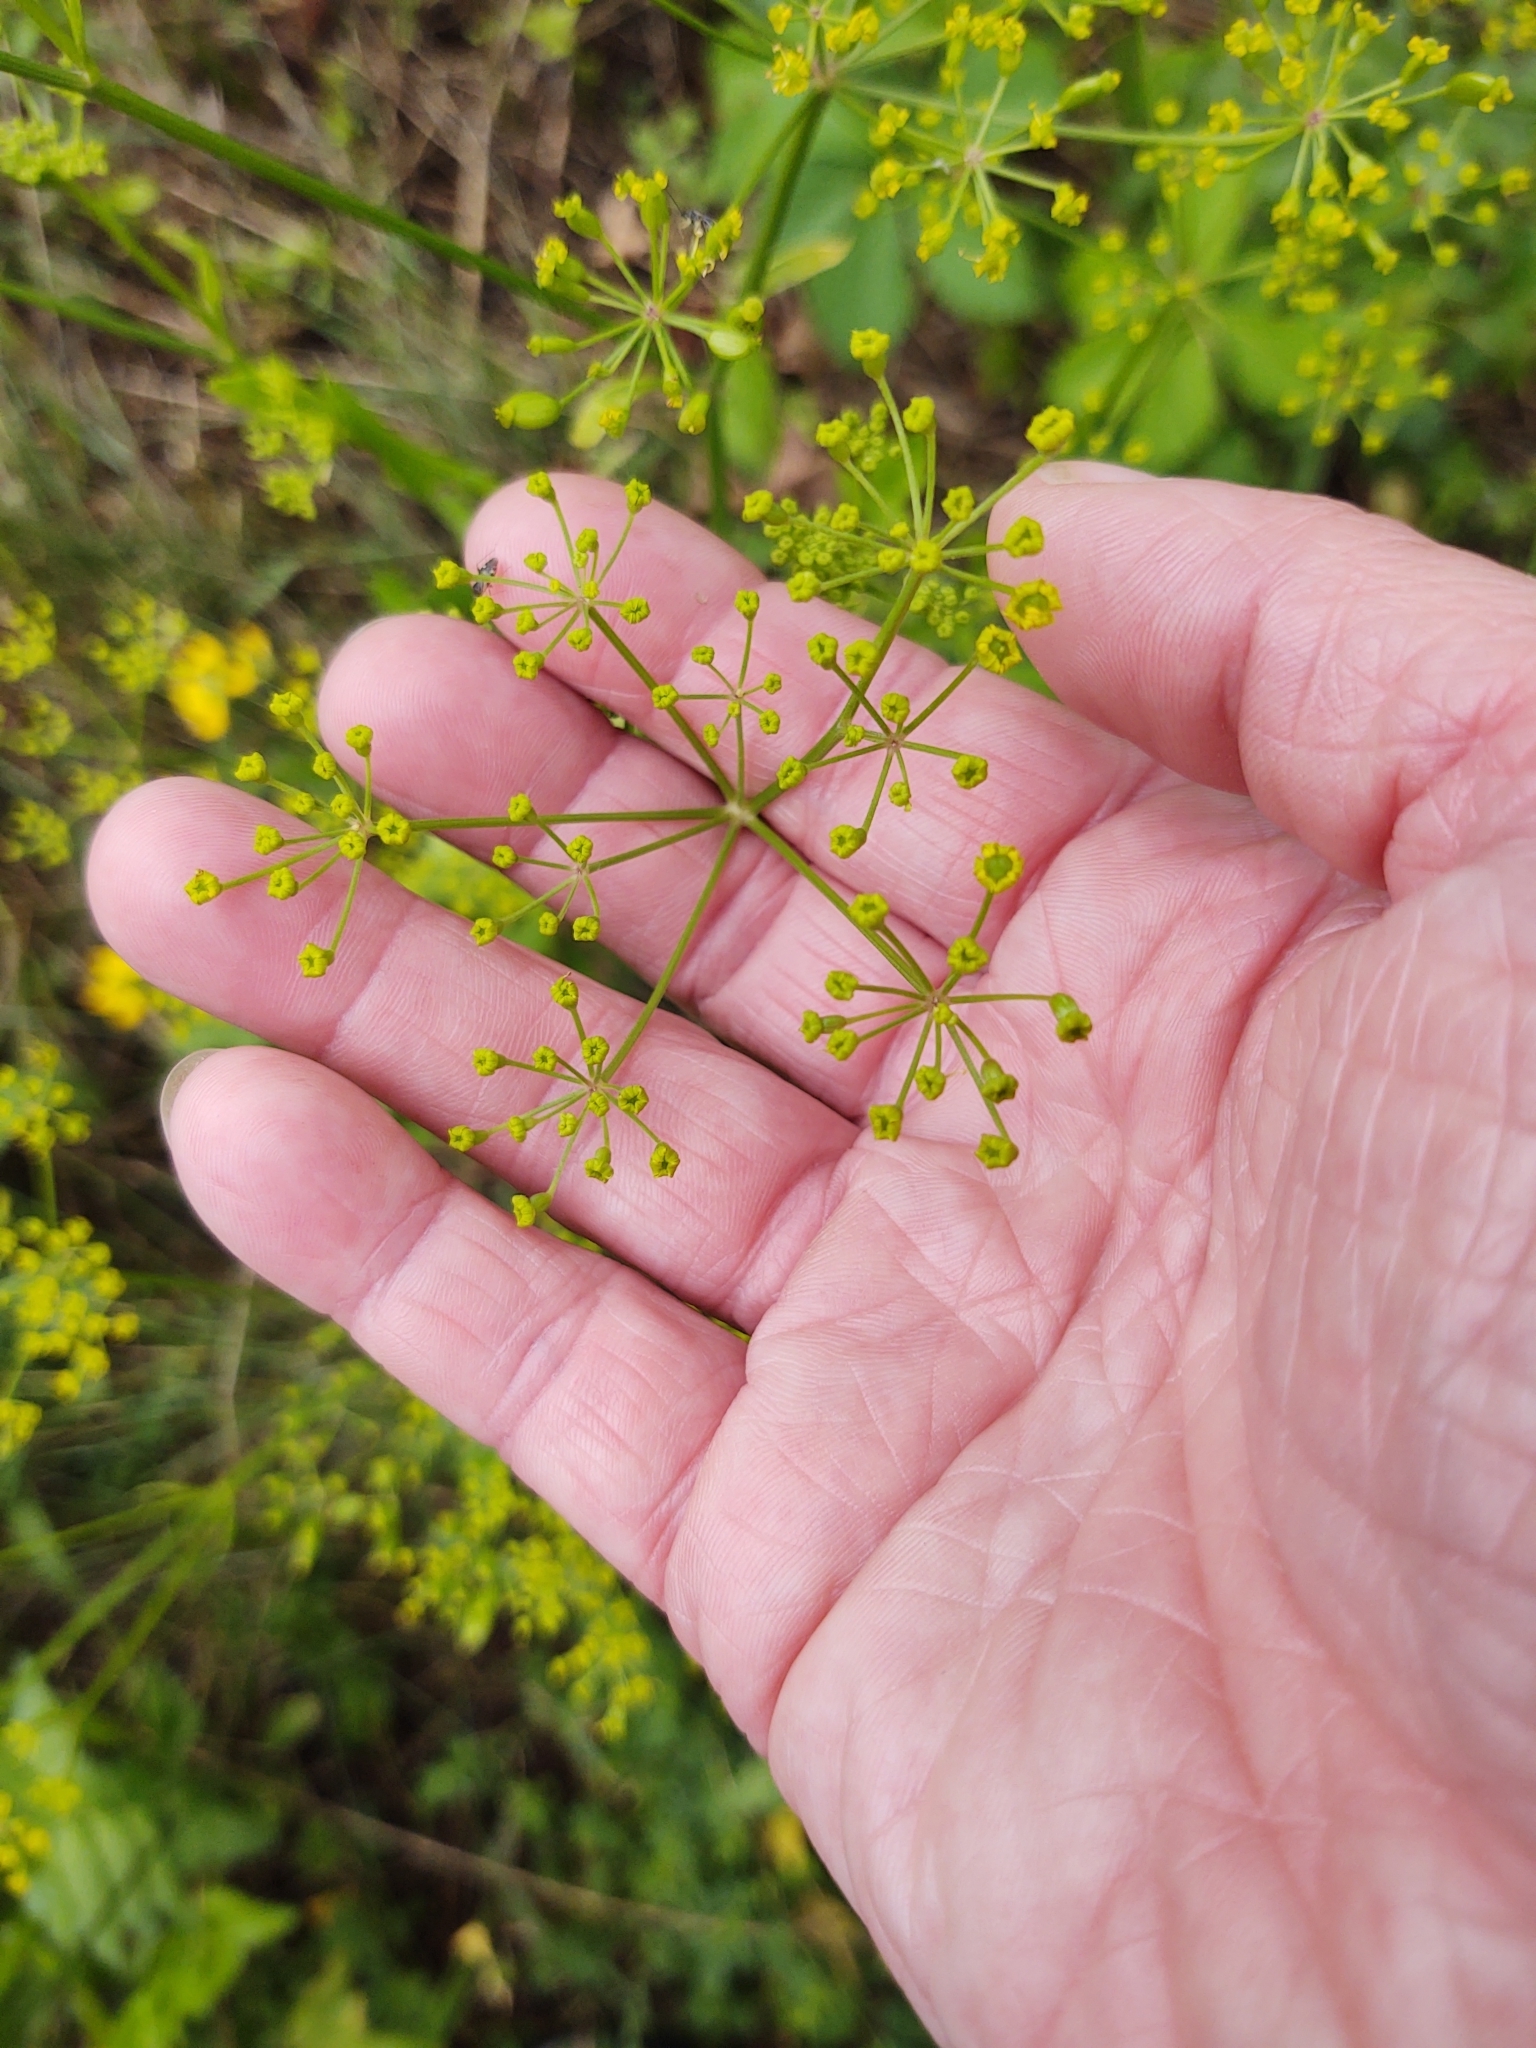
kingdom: Plantae
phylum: Tracheophyta
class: Magnoliopsida
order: Apiales
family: Apiaceae
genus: Pastinaca
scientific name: Pastinaca sativa
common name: Wild parsnip
